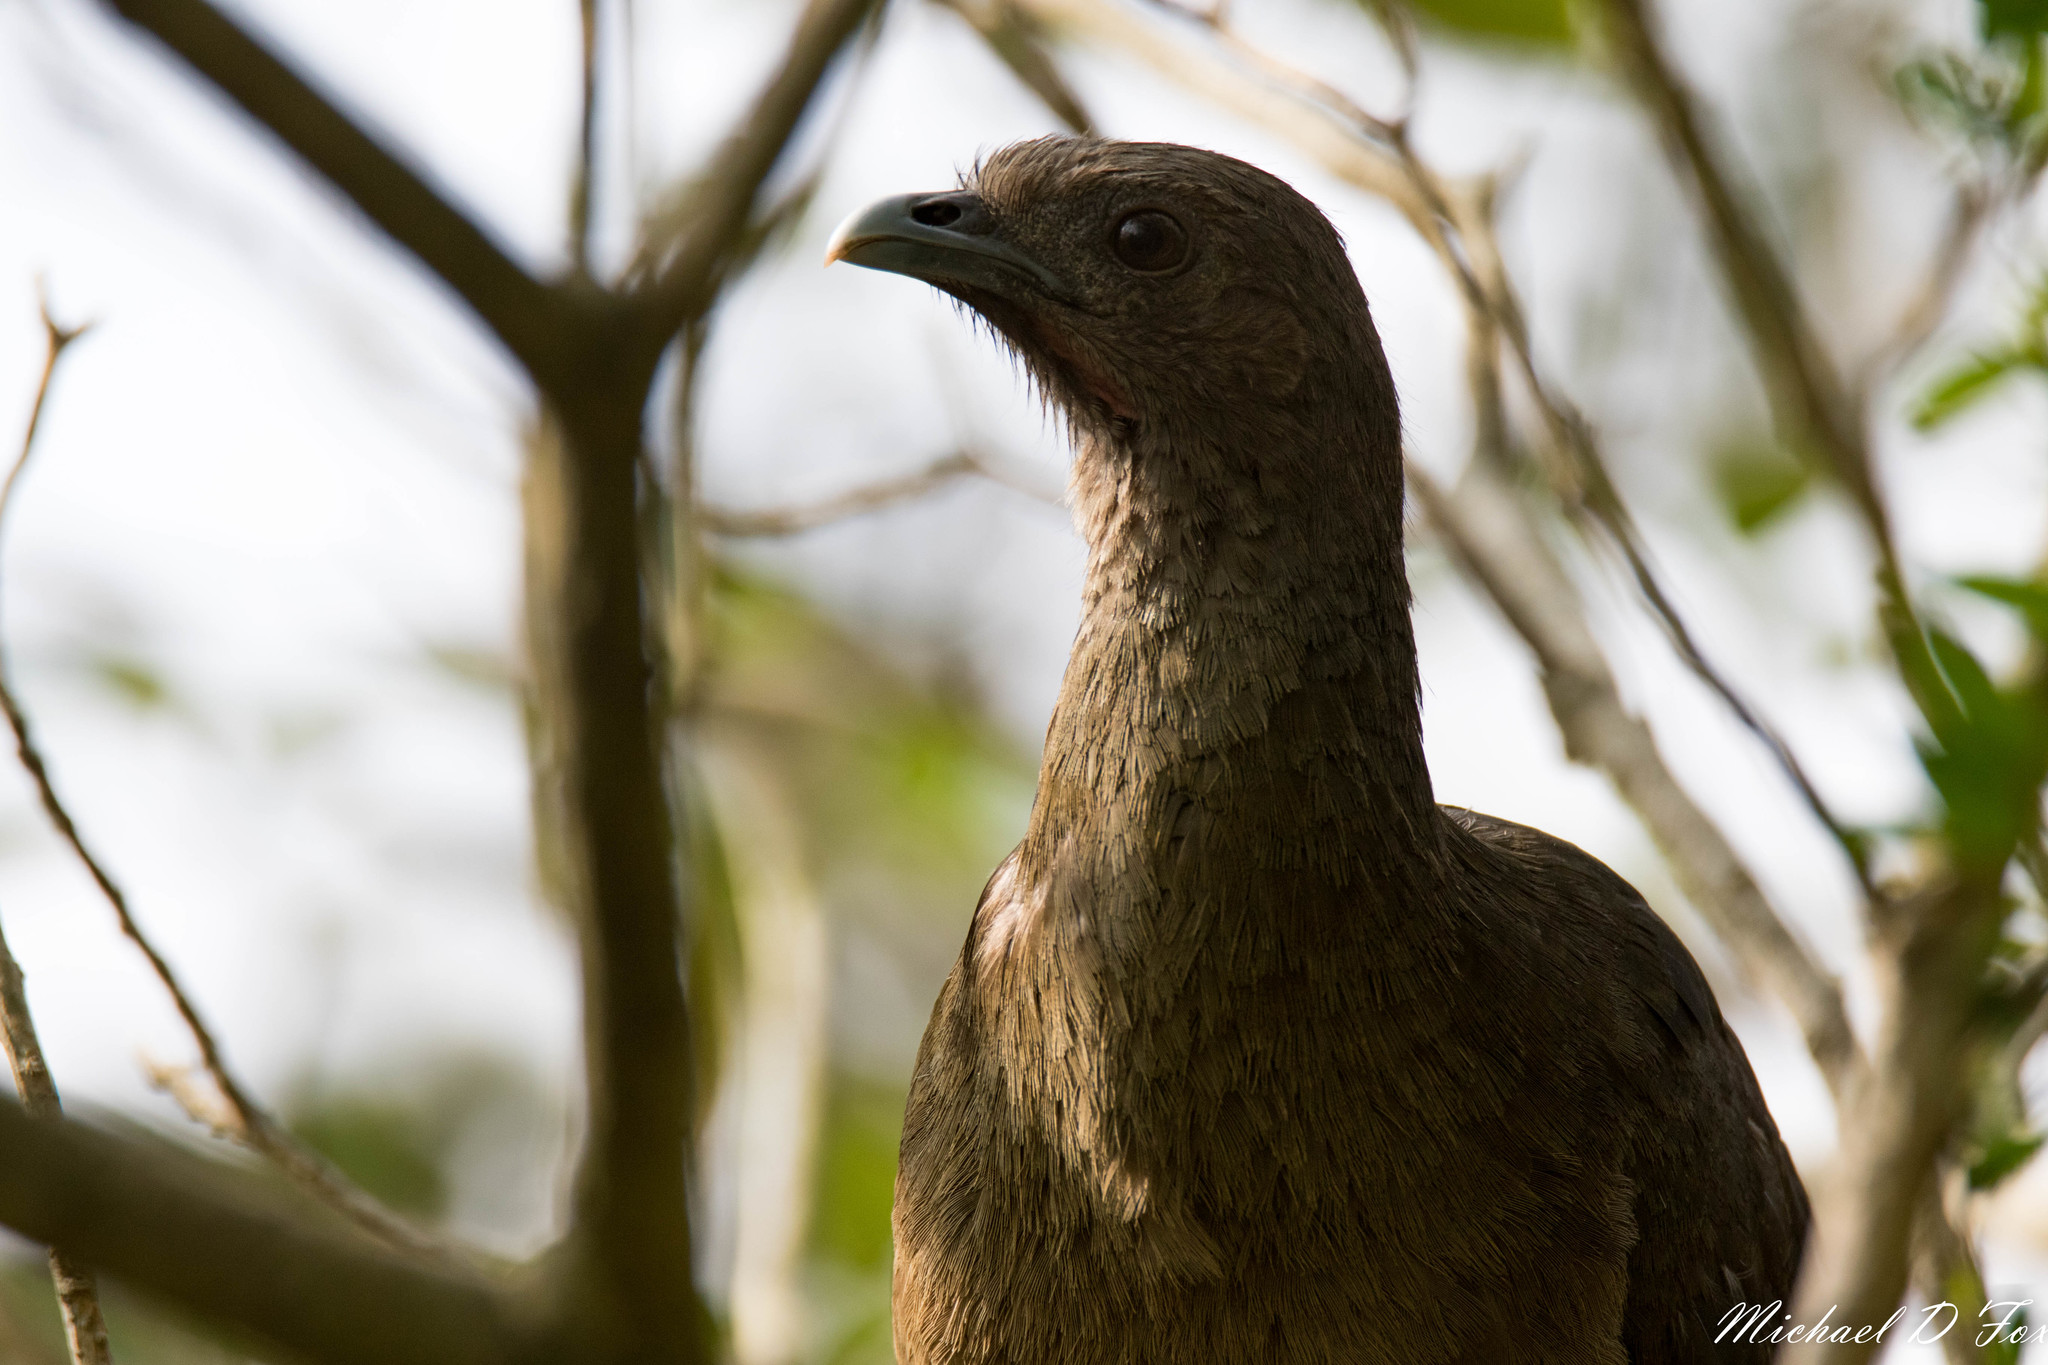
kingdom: Animalia
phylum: Chordata
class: Aves
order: Galliformes
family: Cracidae
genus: Ortalis
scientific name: Ortalis vetula
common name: Plain chachalaca
